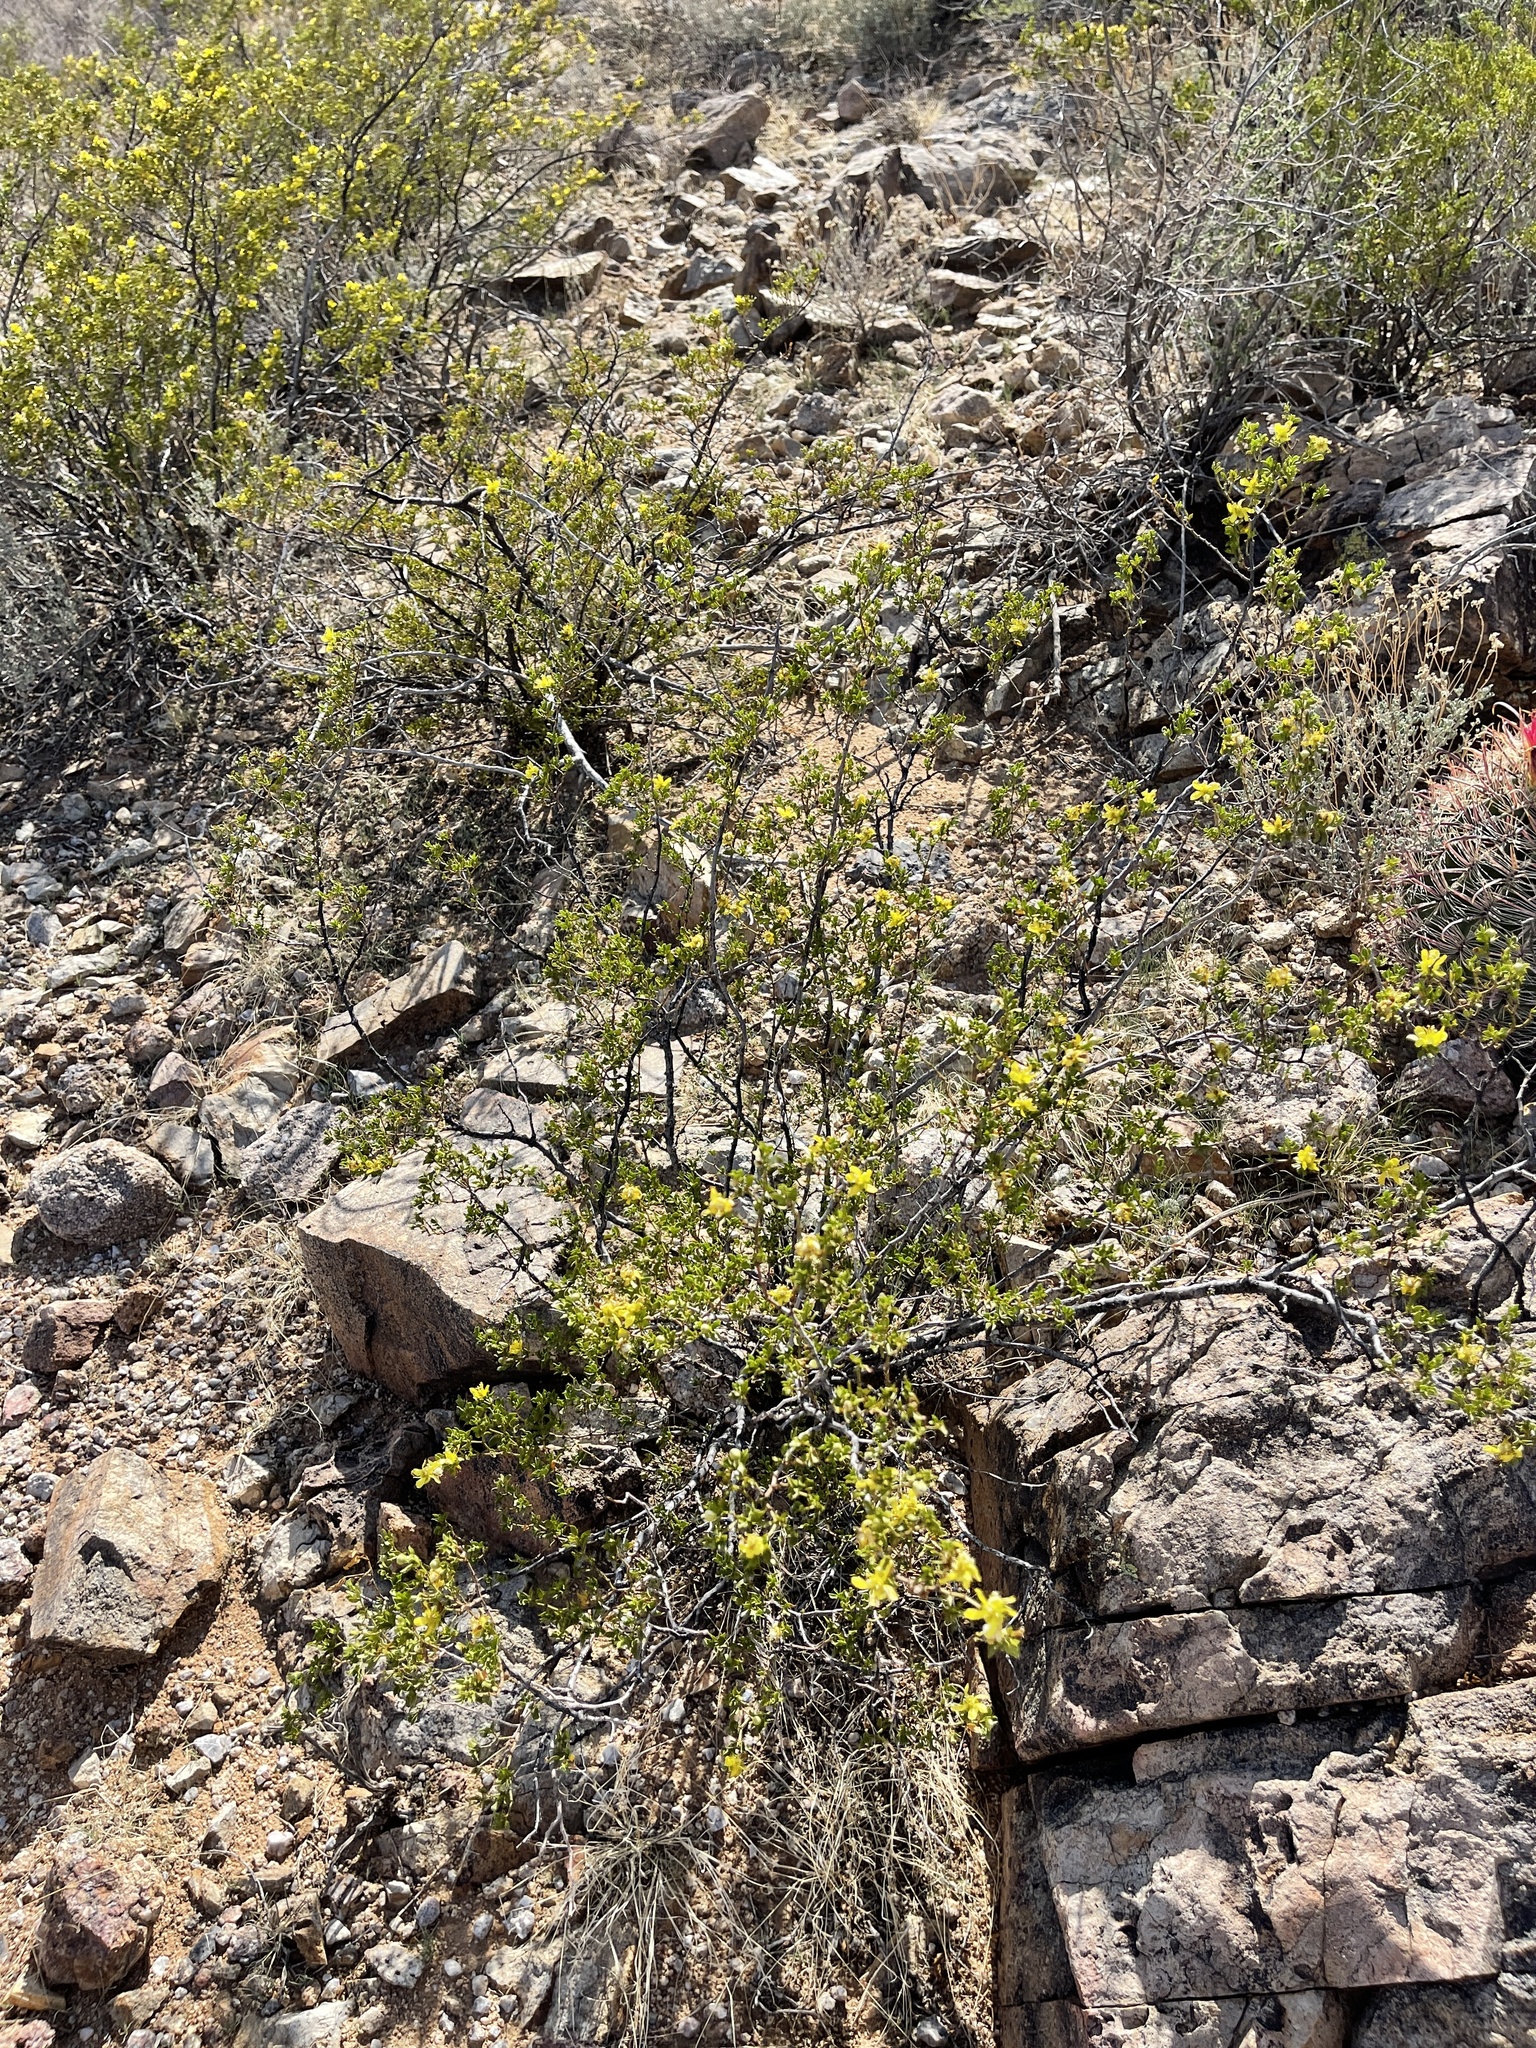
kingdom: Plantae
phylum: Tracheophyta
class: Magnoliopsida
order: Zygophyllales
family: Zygophyllaceae
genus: Larrea
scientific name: Larrea tridentata
